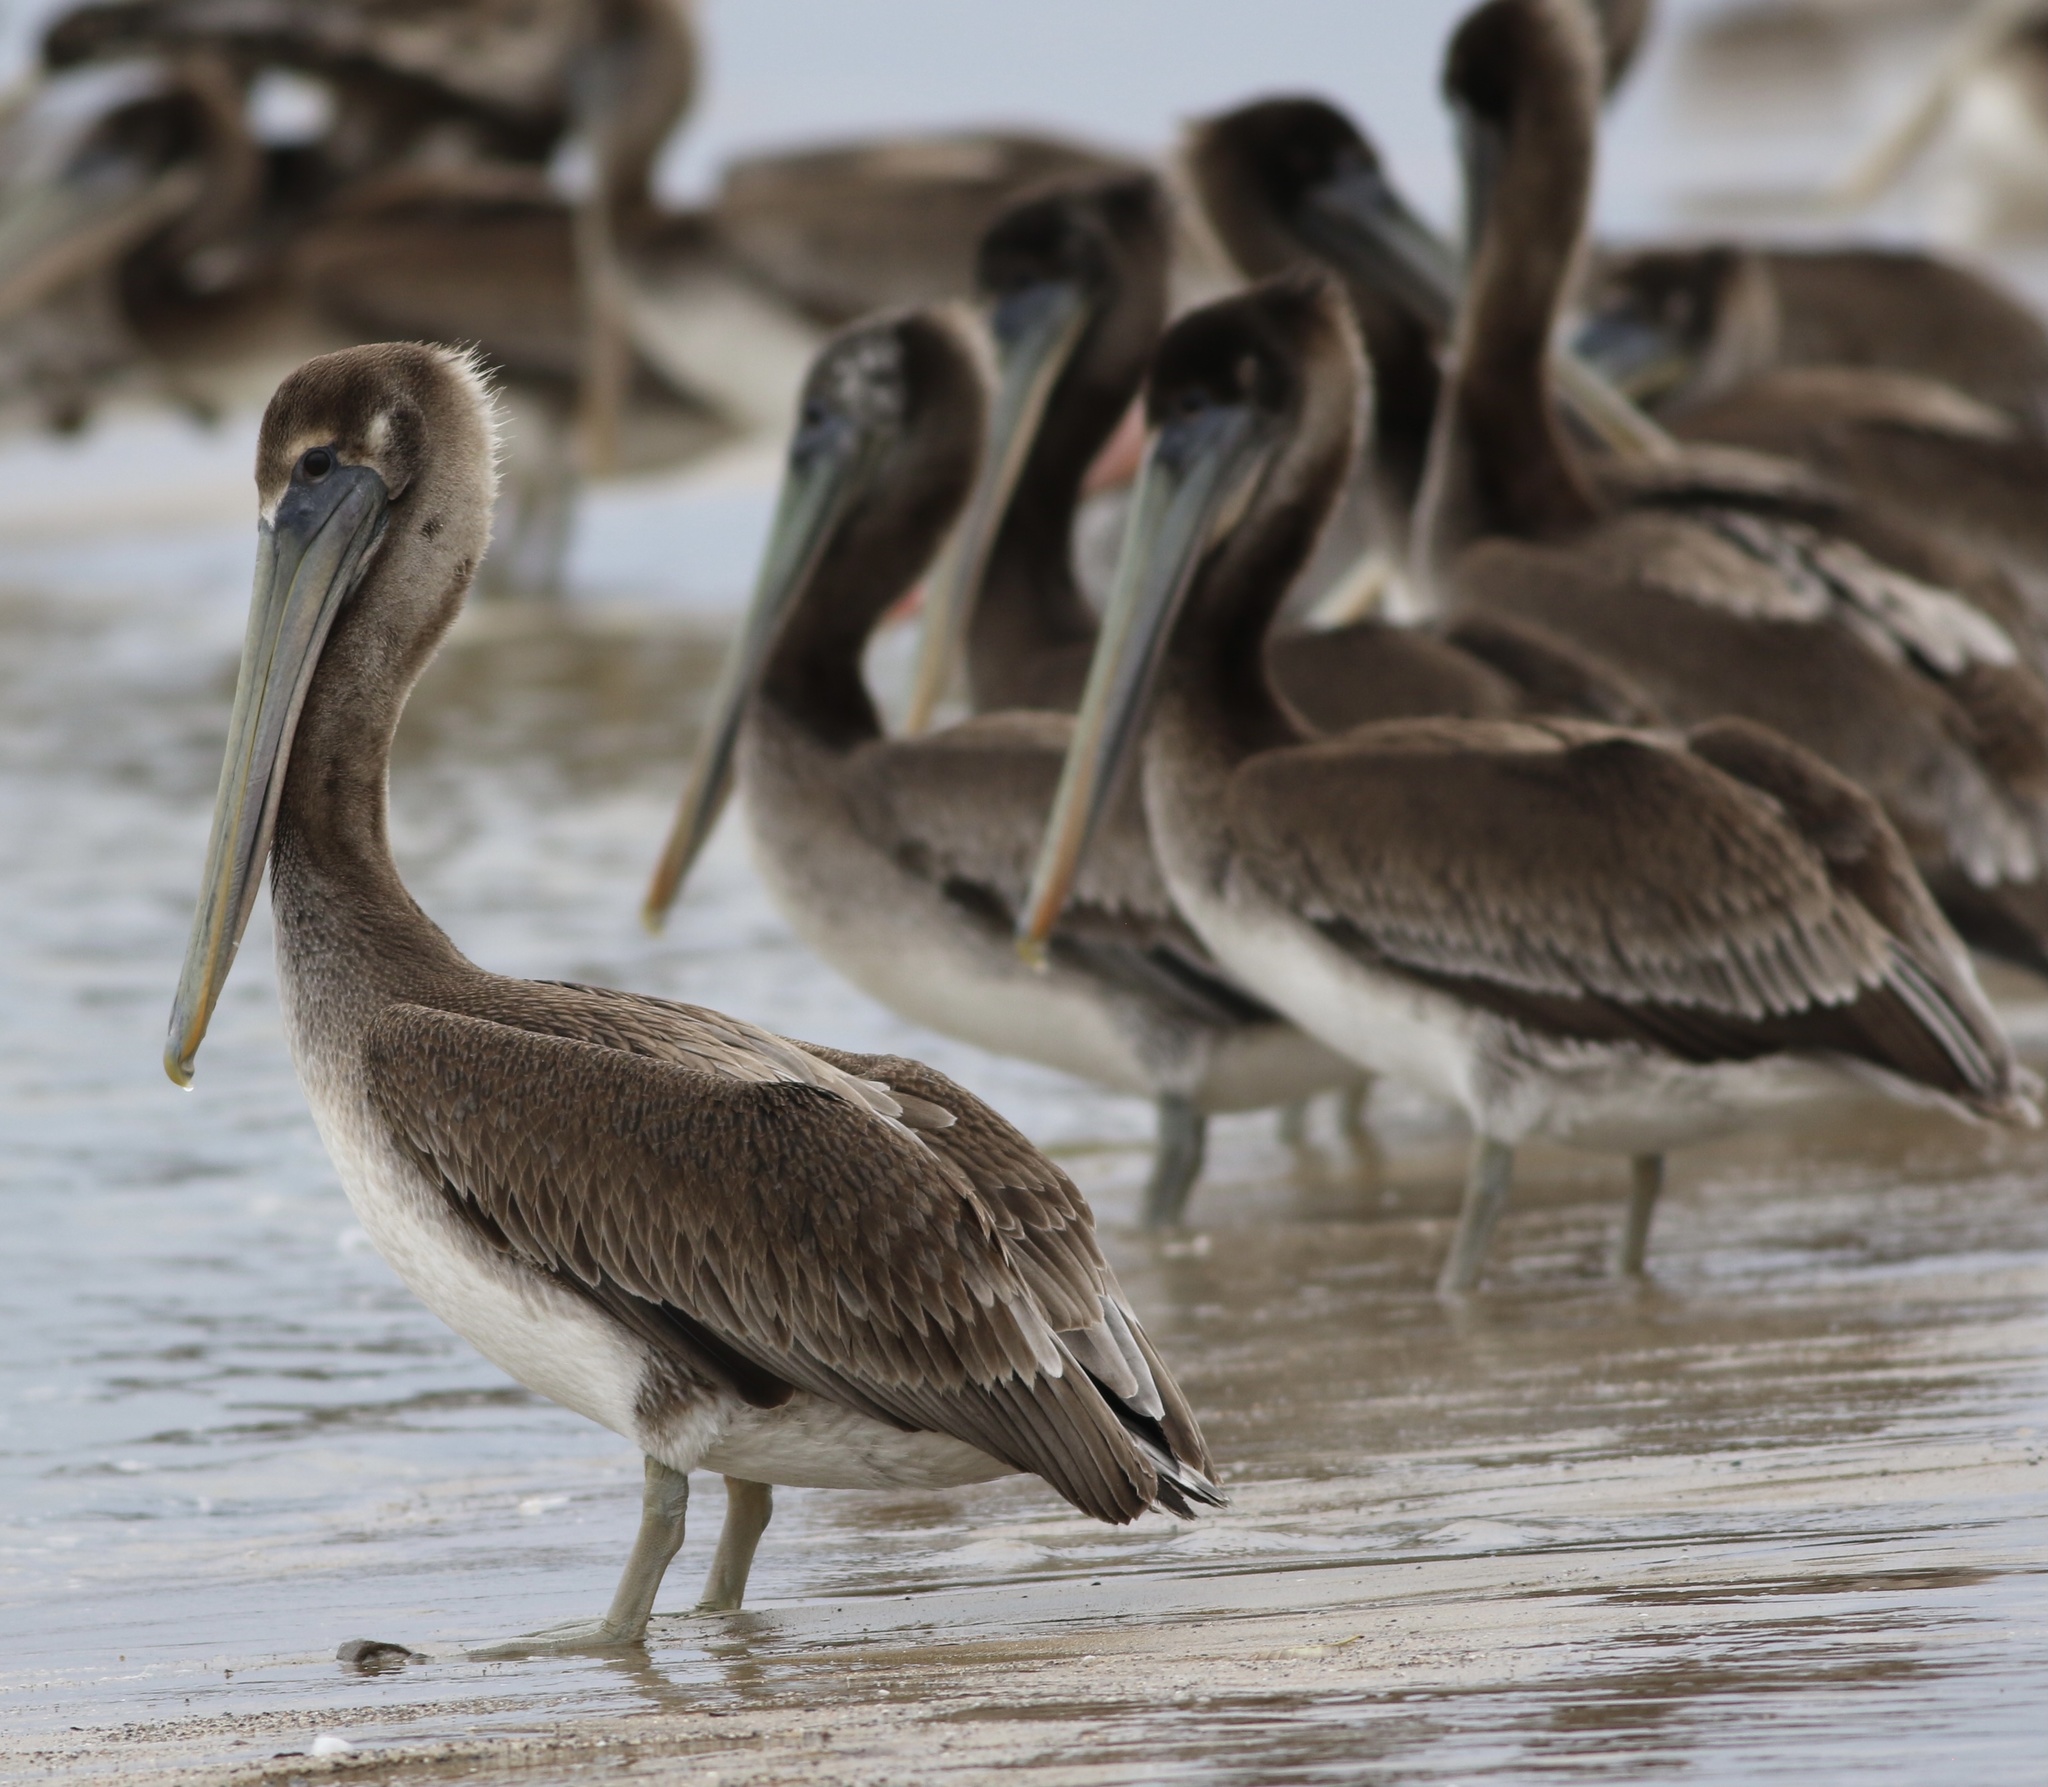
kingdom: Animalia
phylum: Chordata
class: Aves
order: Pelecaniformes
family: Pelecanidae
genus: Pelecanus
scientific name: Pelecanus occidentalis
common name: Brown pelican
